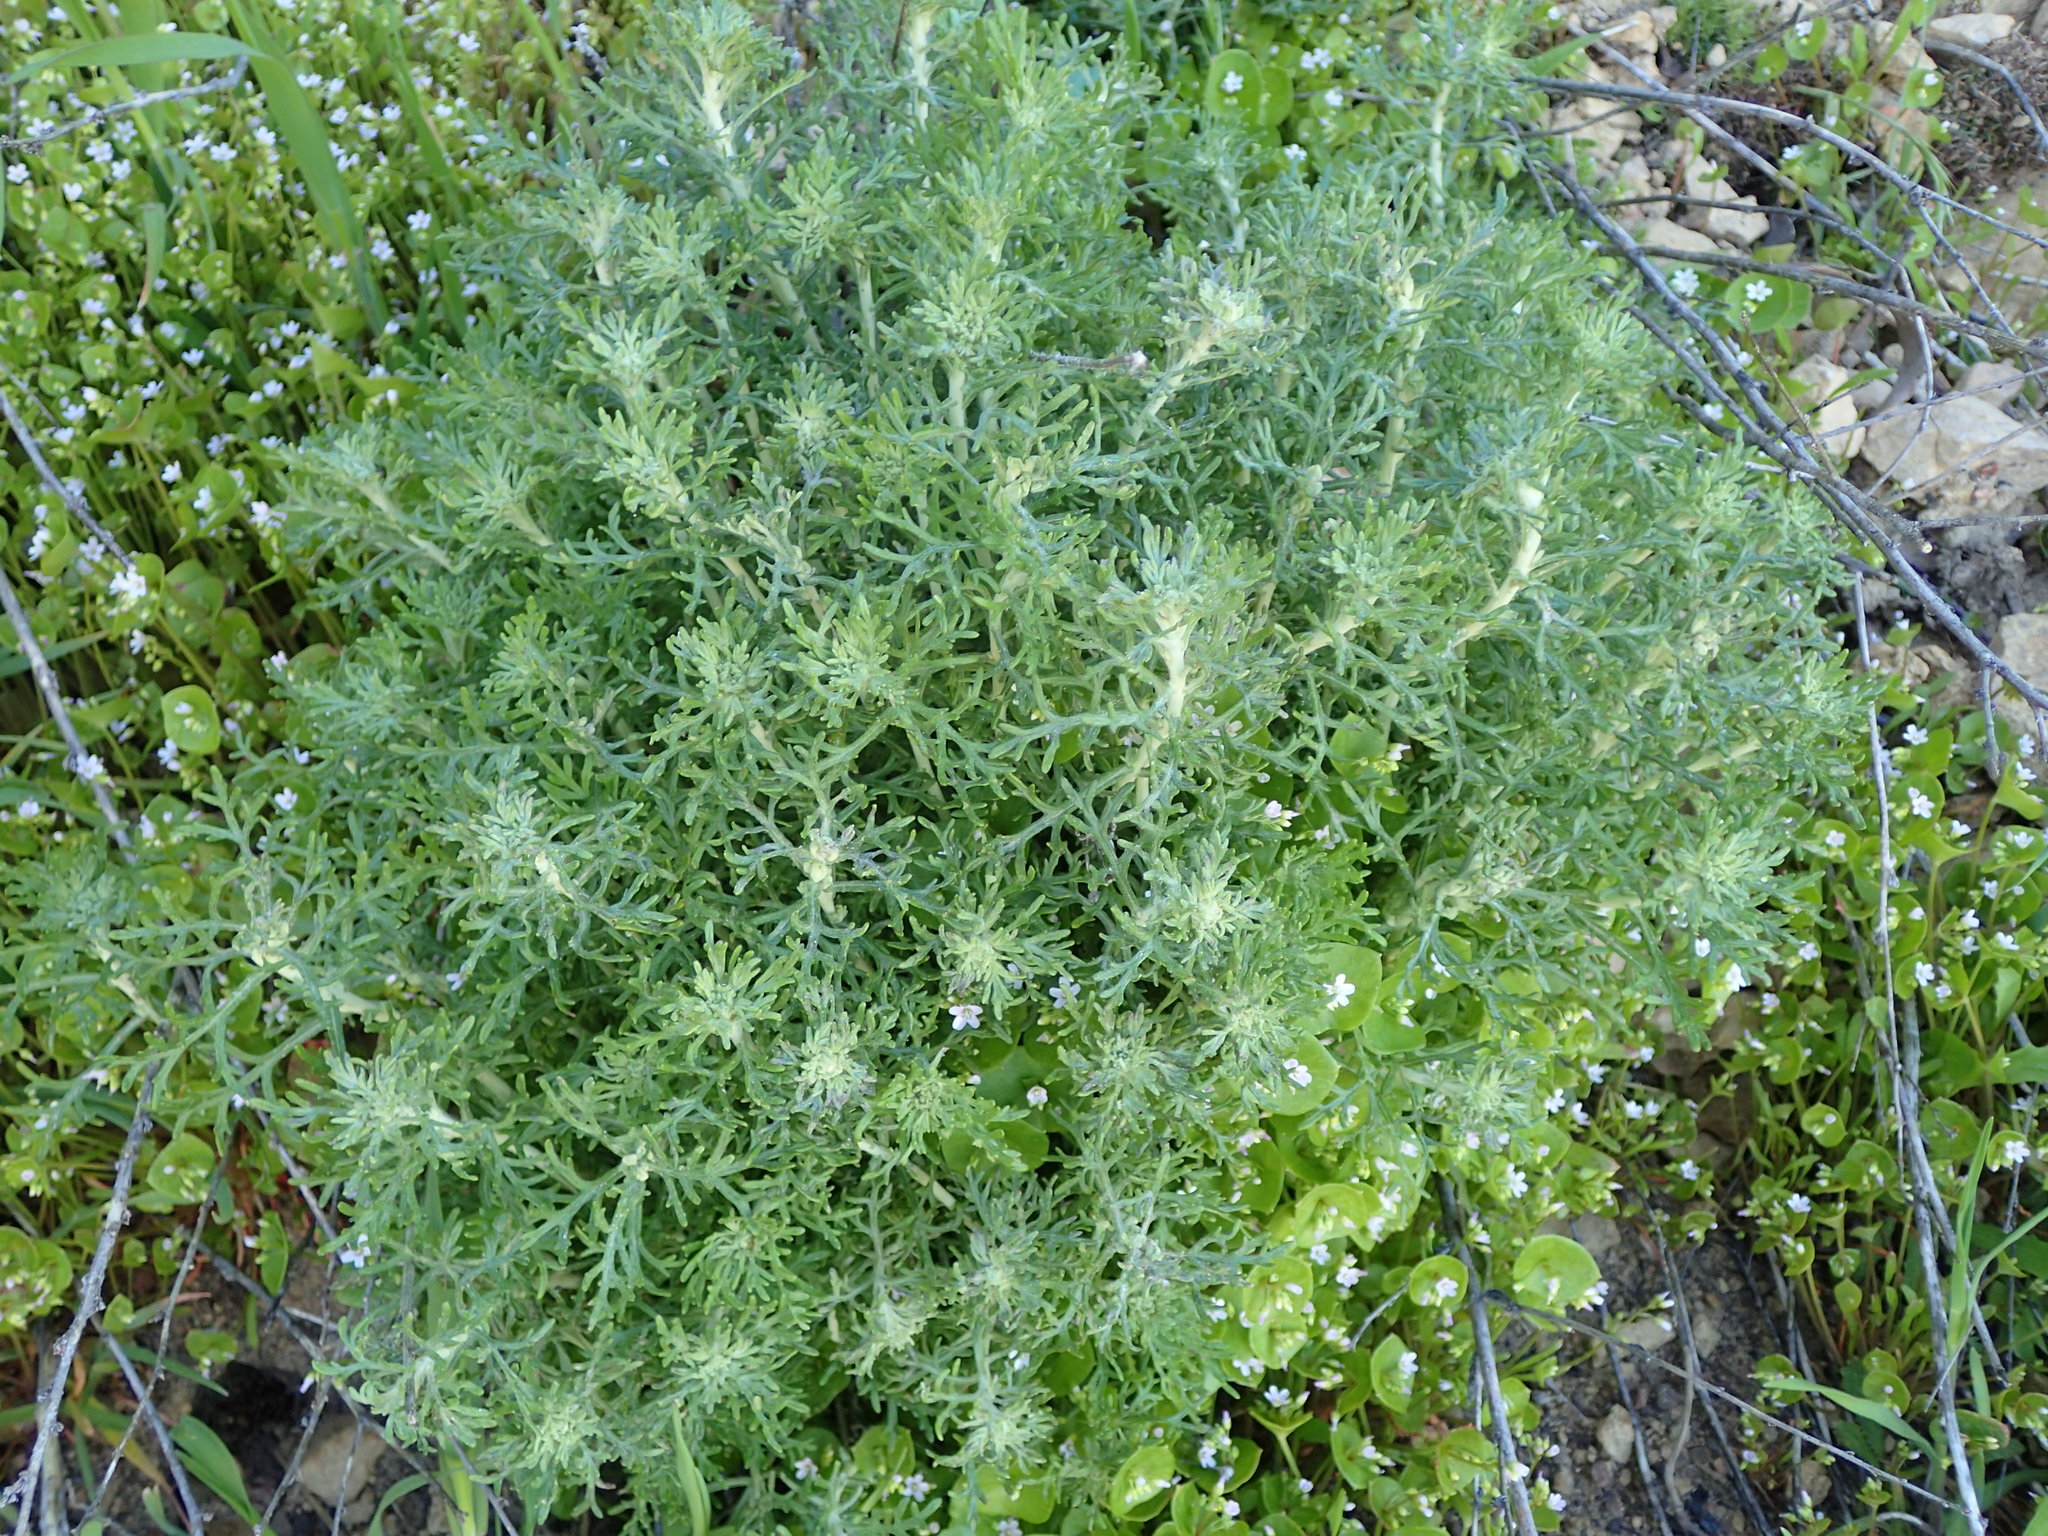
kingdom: Plantae
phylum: Tracheophyta
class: Magnoliopsida
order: Asterales
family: Asteraceae
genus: Eriophyllum
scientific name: Eriophyllum confertiflorum
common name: Golden-yarrow
